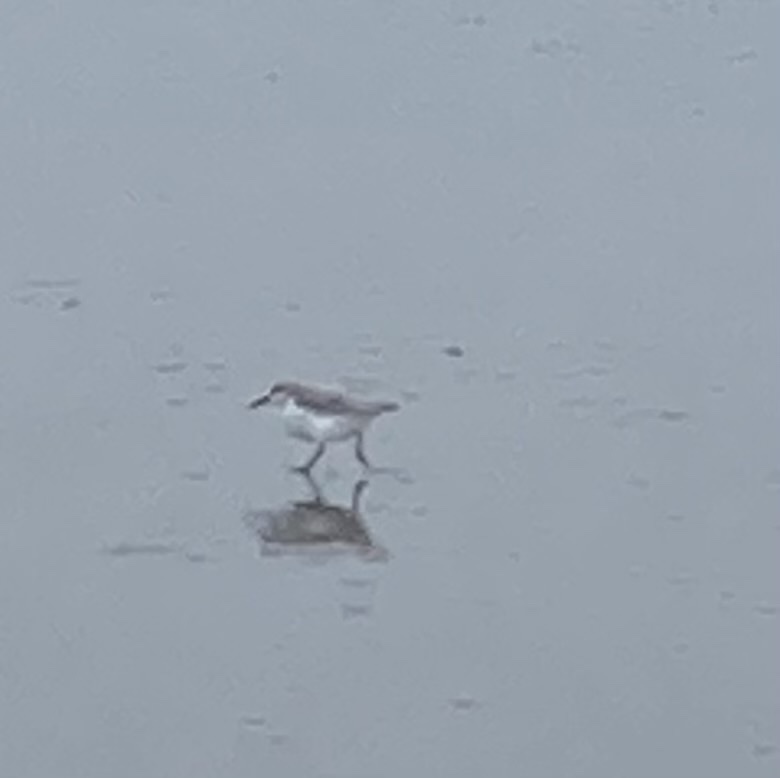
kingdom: Animalia
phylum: Chordata
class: Aves
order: Charadriiformes
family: Scolopacidae
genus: Calidris
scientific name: Calidris alba
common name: Sanderling
